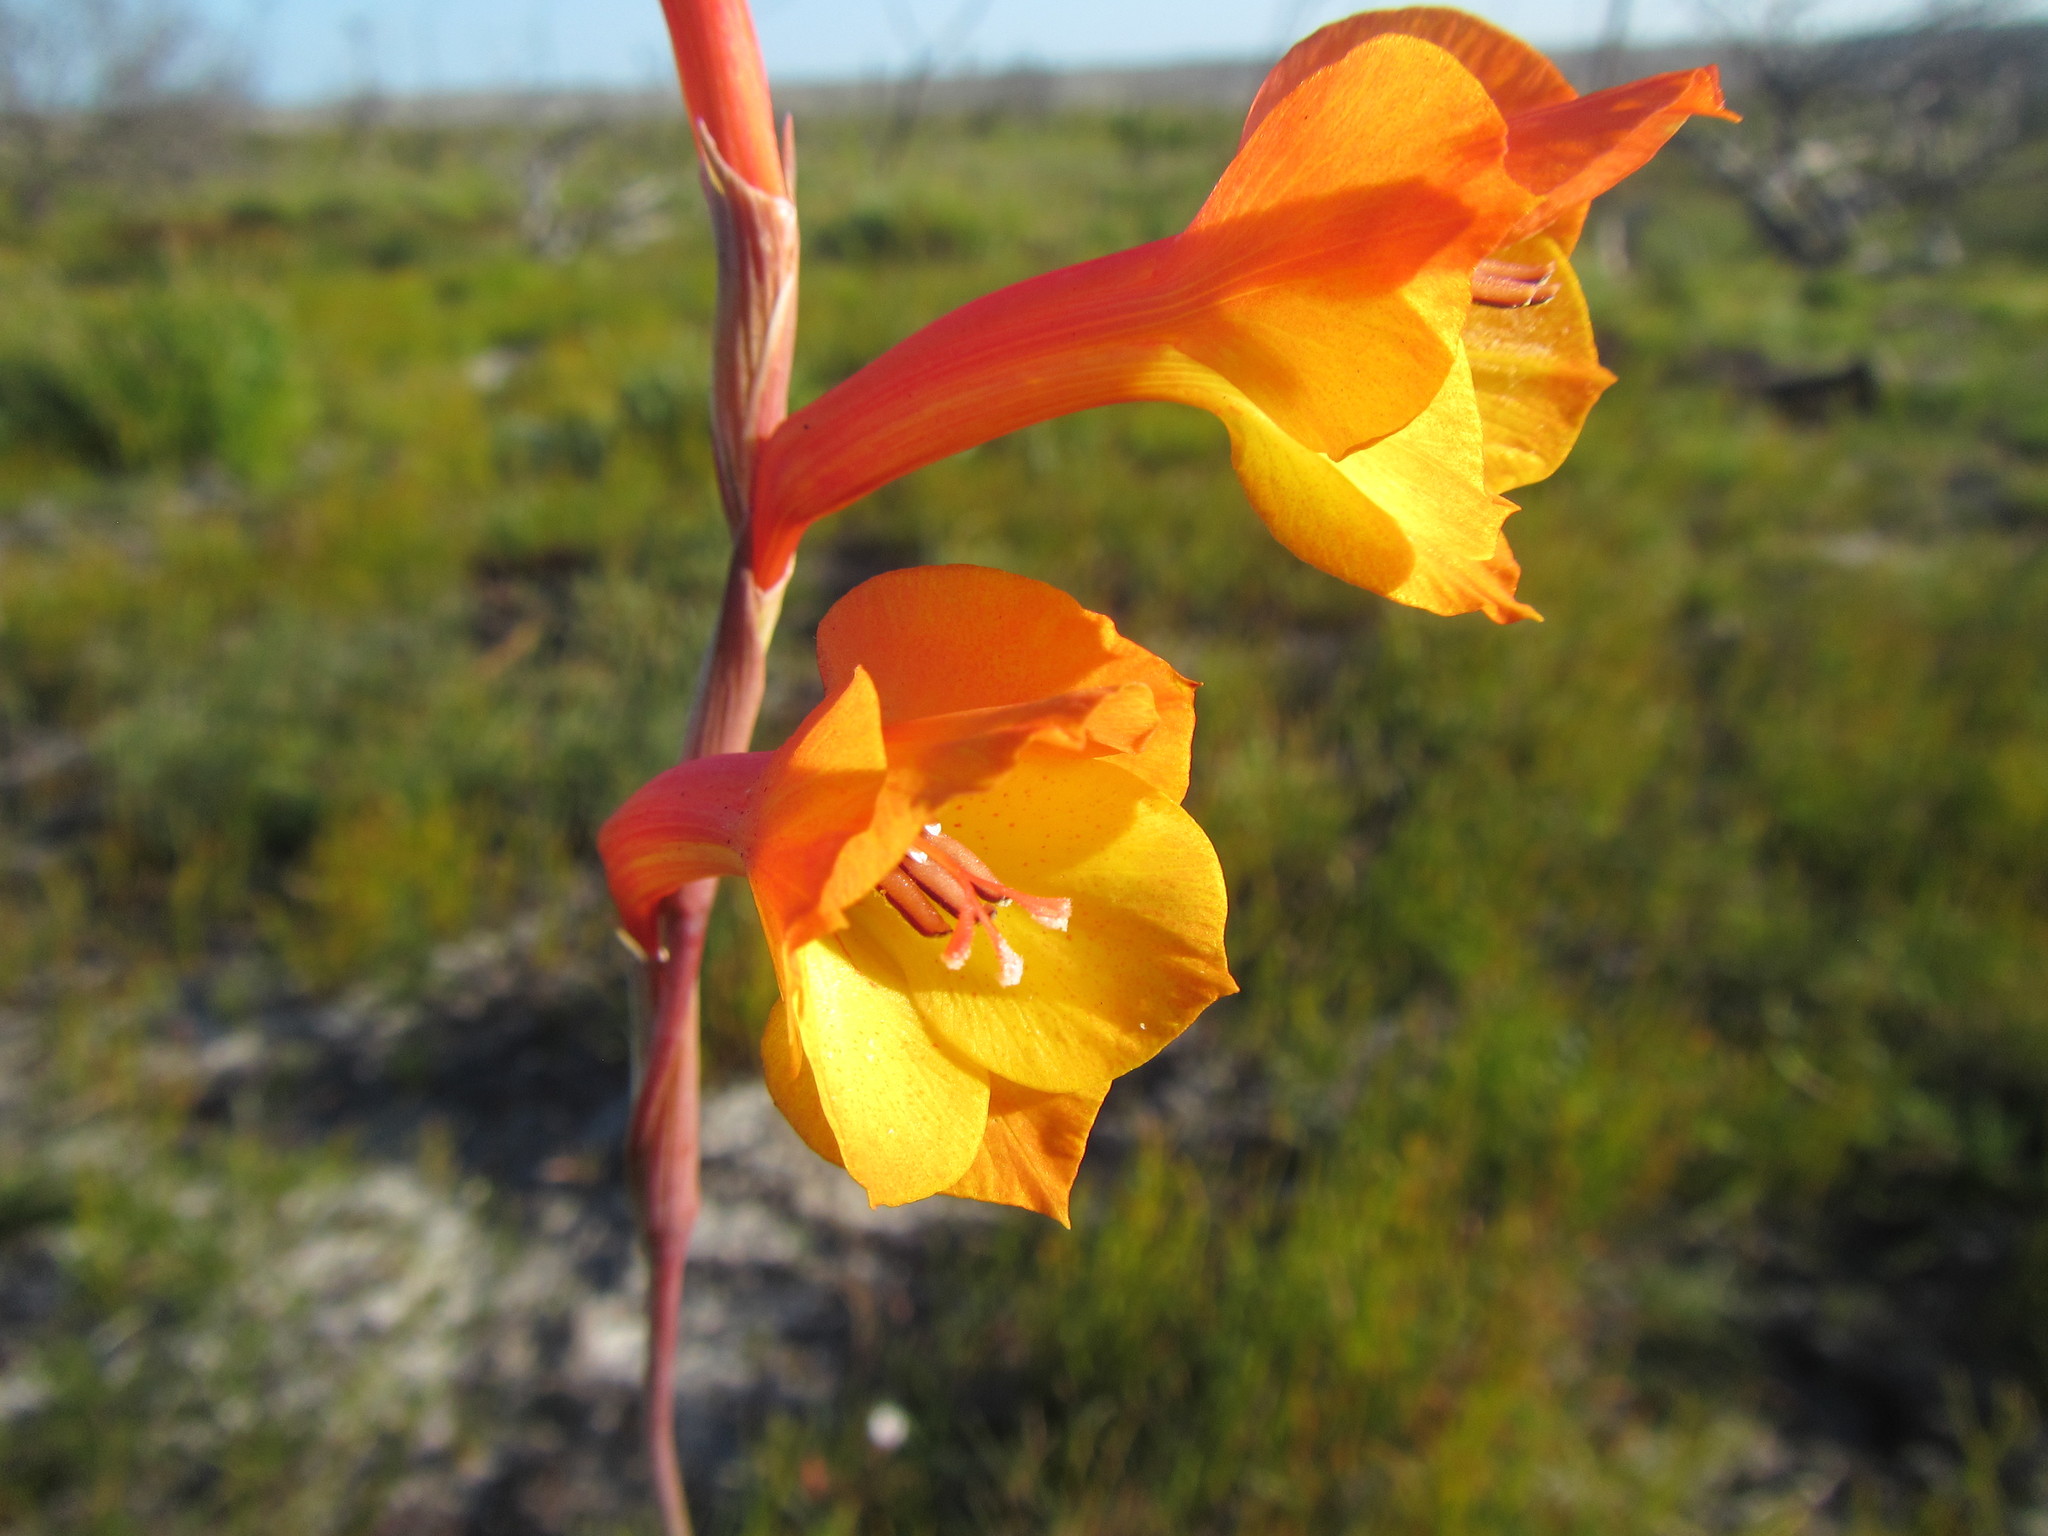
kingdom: Plantae
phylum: Tracheophyta
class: Liliopsida
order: Asparagales
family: Iridaceae
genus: Gladiolus
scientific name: Gladiolus merianellus
